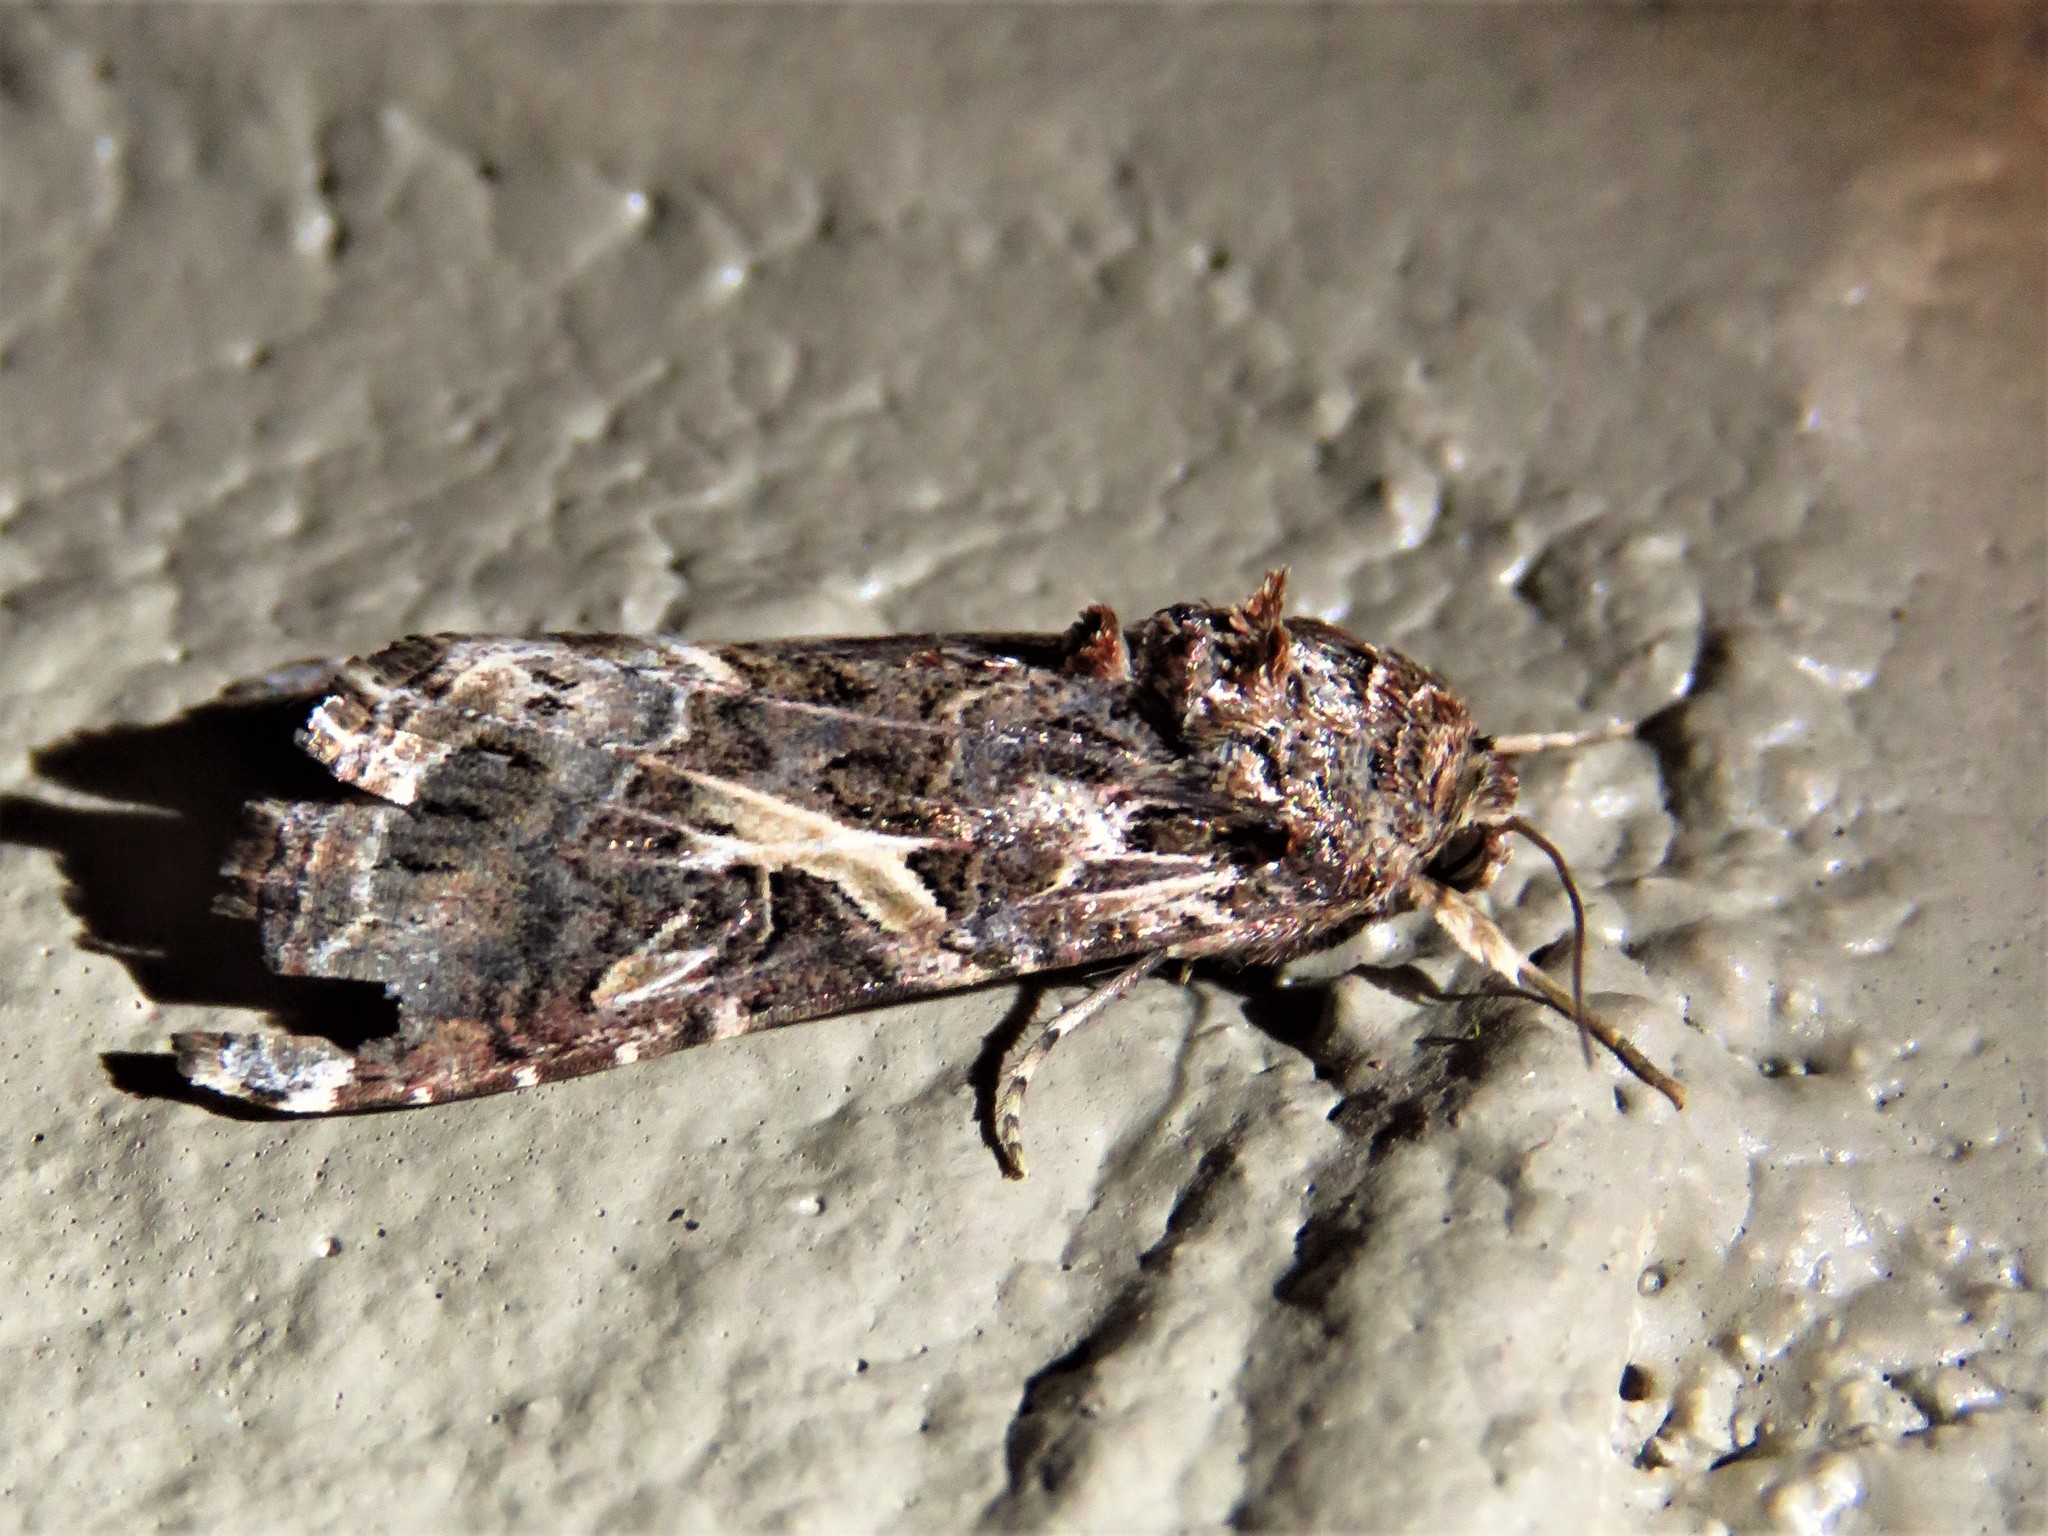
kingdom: Animalia
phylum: Arthropoda
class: Insecta
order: Lepidoptera
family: Noctuidae
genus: Spodoptera
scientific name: Spodoptera ornithogalli
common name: Yellow-striped armyworm
